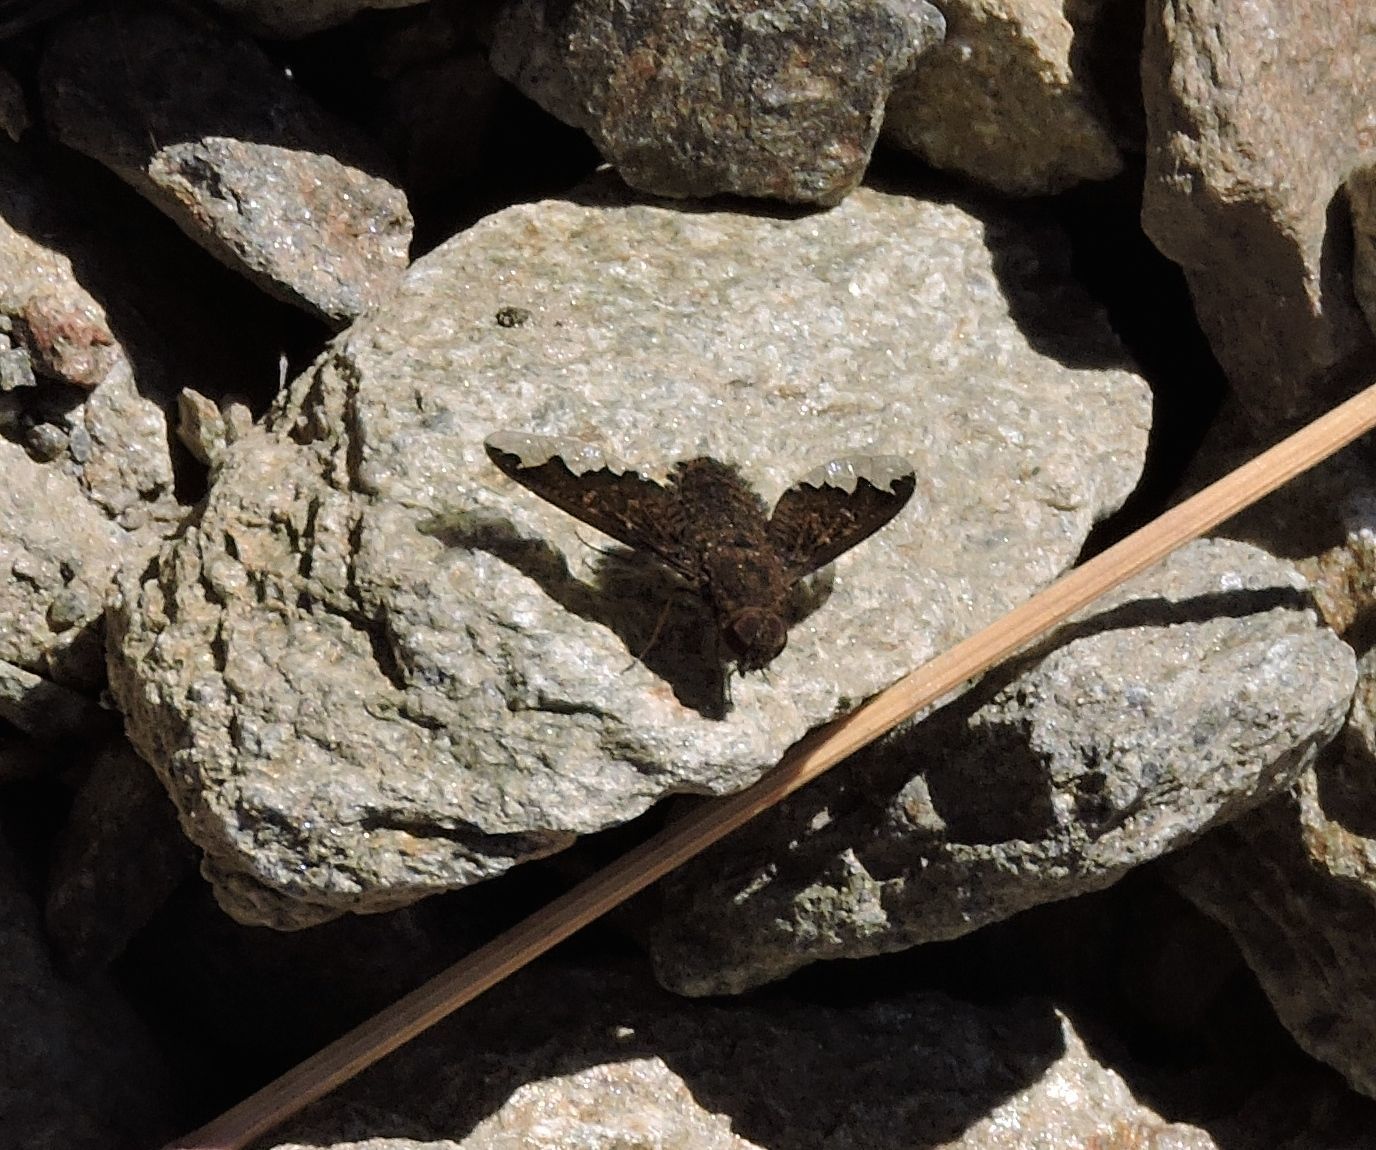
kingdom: Animalia
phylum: Arthropoda
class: Insecta
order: Diptera
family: Bombyliidae
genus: Hemipenthes
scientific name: Hemipenthes sinuosus
